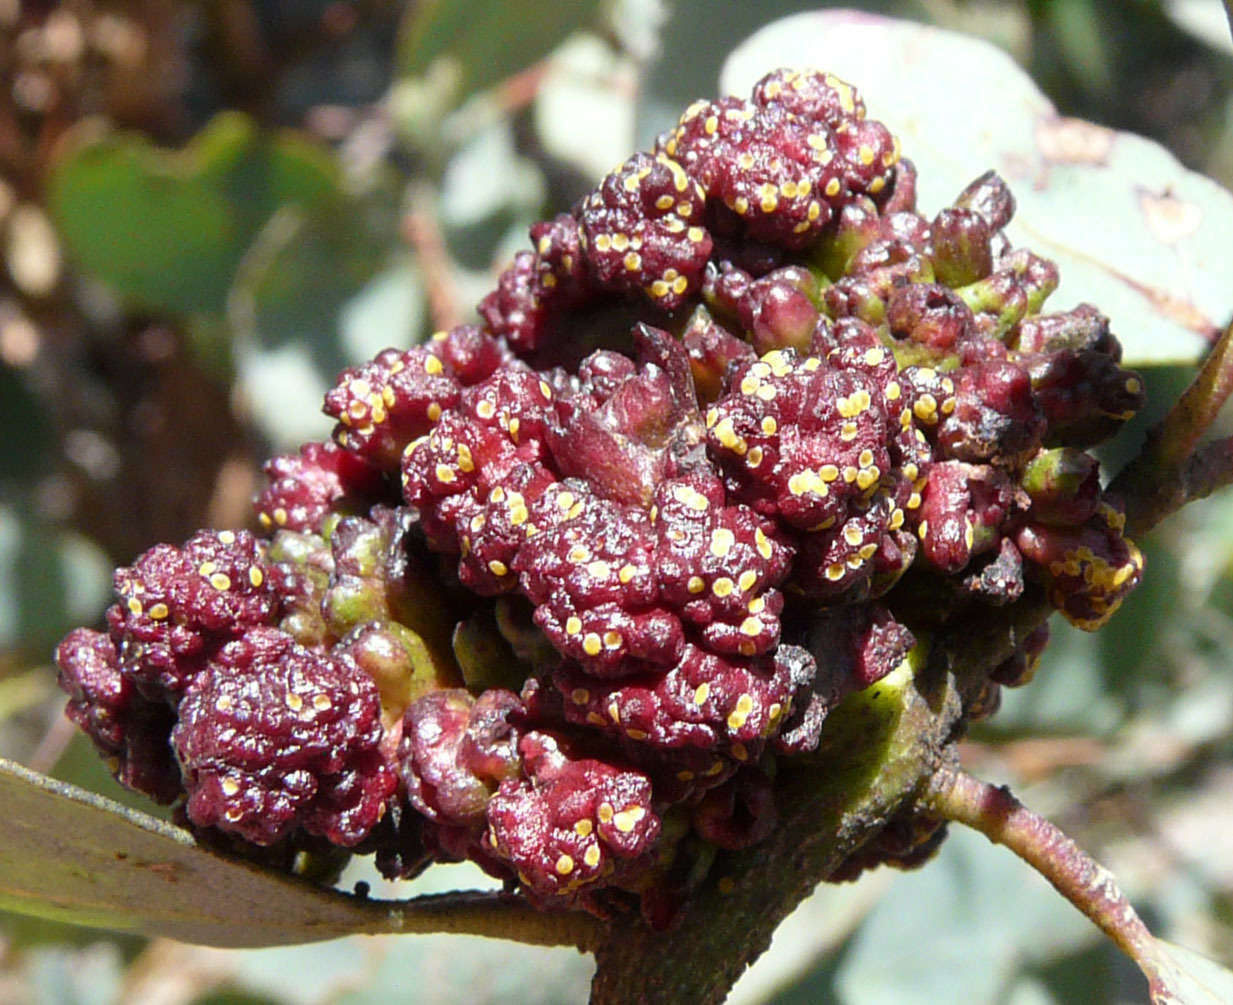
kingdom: Animalia
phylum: Arthropoda
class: Insecta
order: Hemiptera
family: Eriococcidae
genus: Apiomorpha
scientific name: Apiomorpha munita
